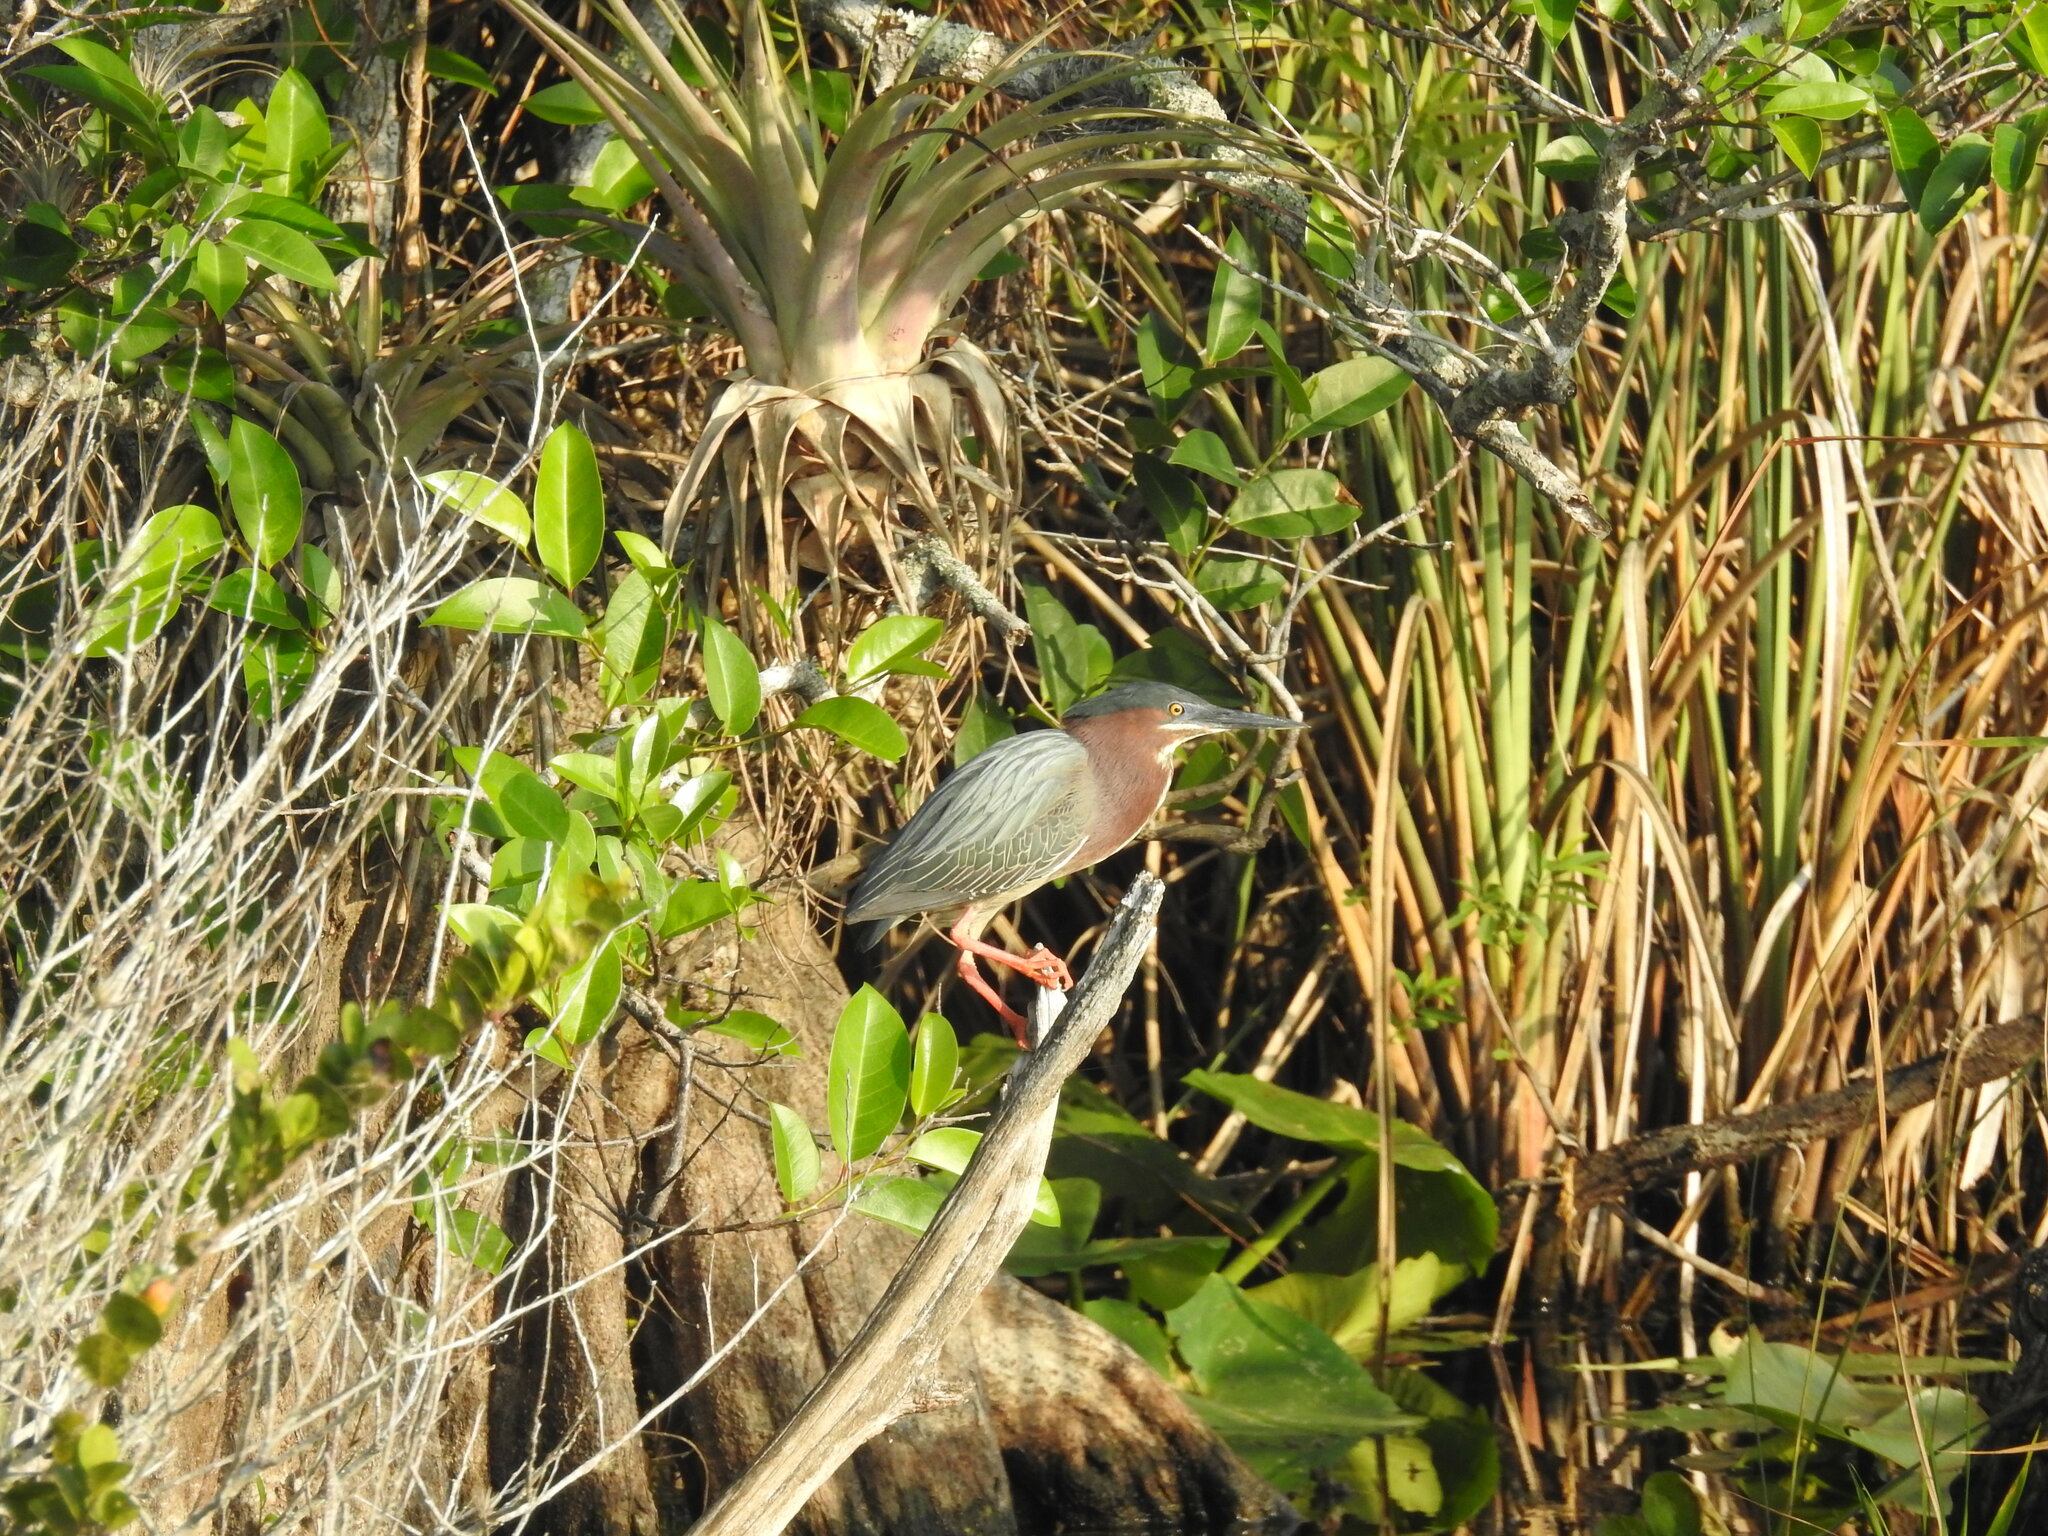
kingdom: Animalia
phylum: Chordata
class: Aves
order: Pelecaniformes
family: Ardeidae
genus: Butorides
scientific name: Butorides virescens
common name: Green heron
